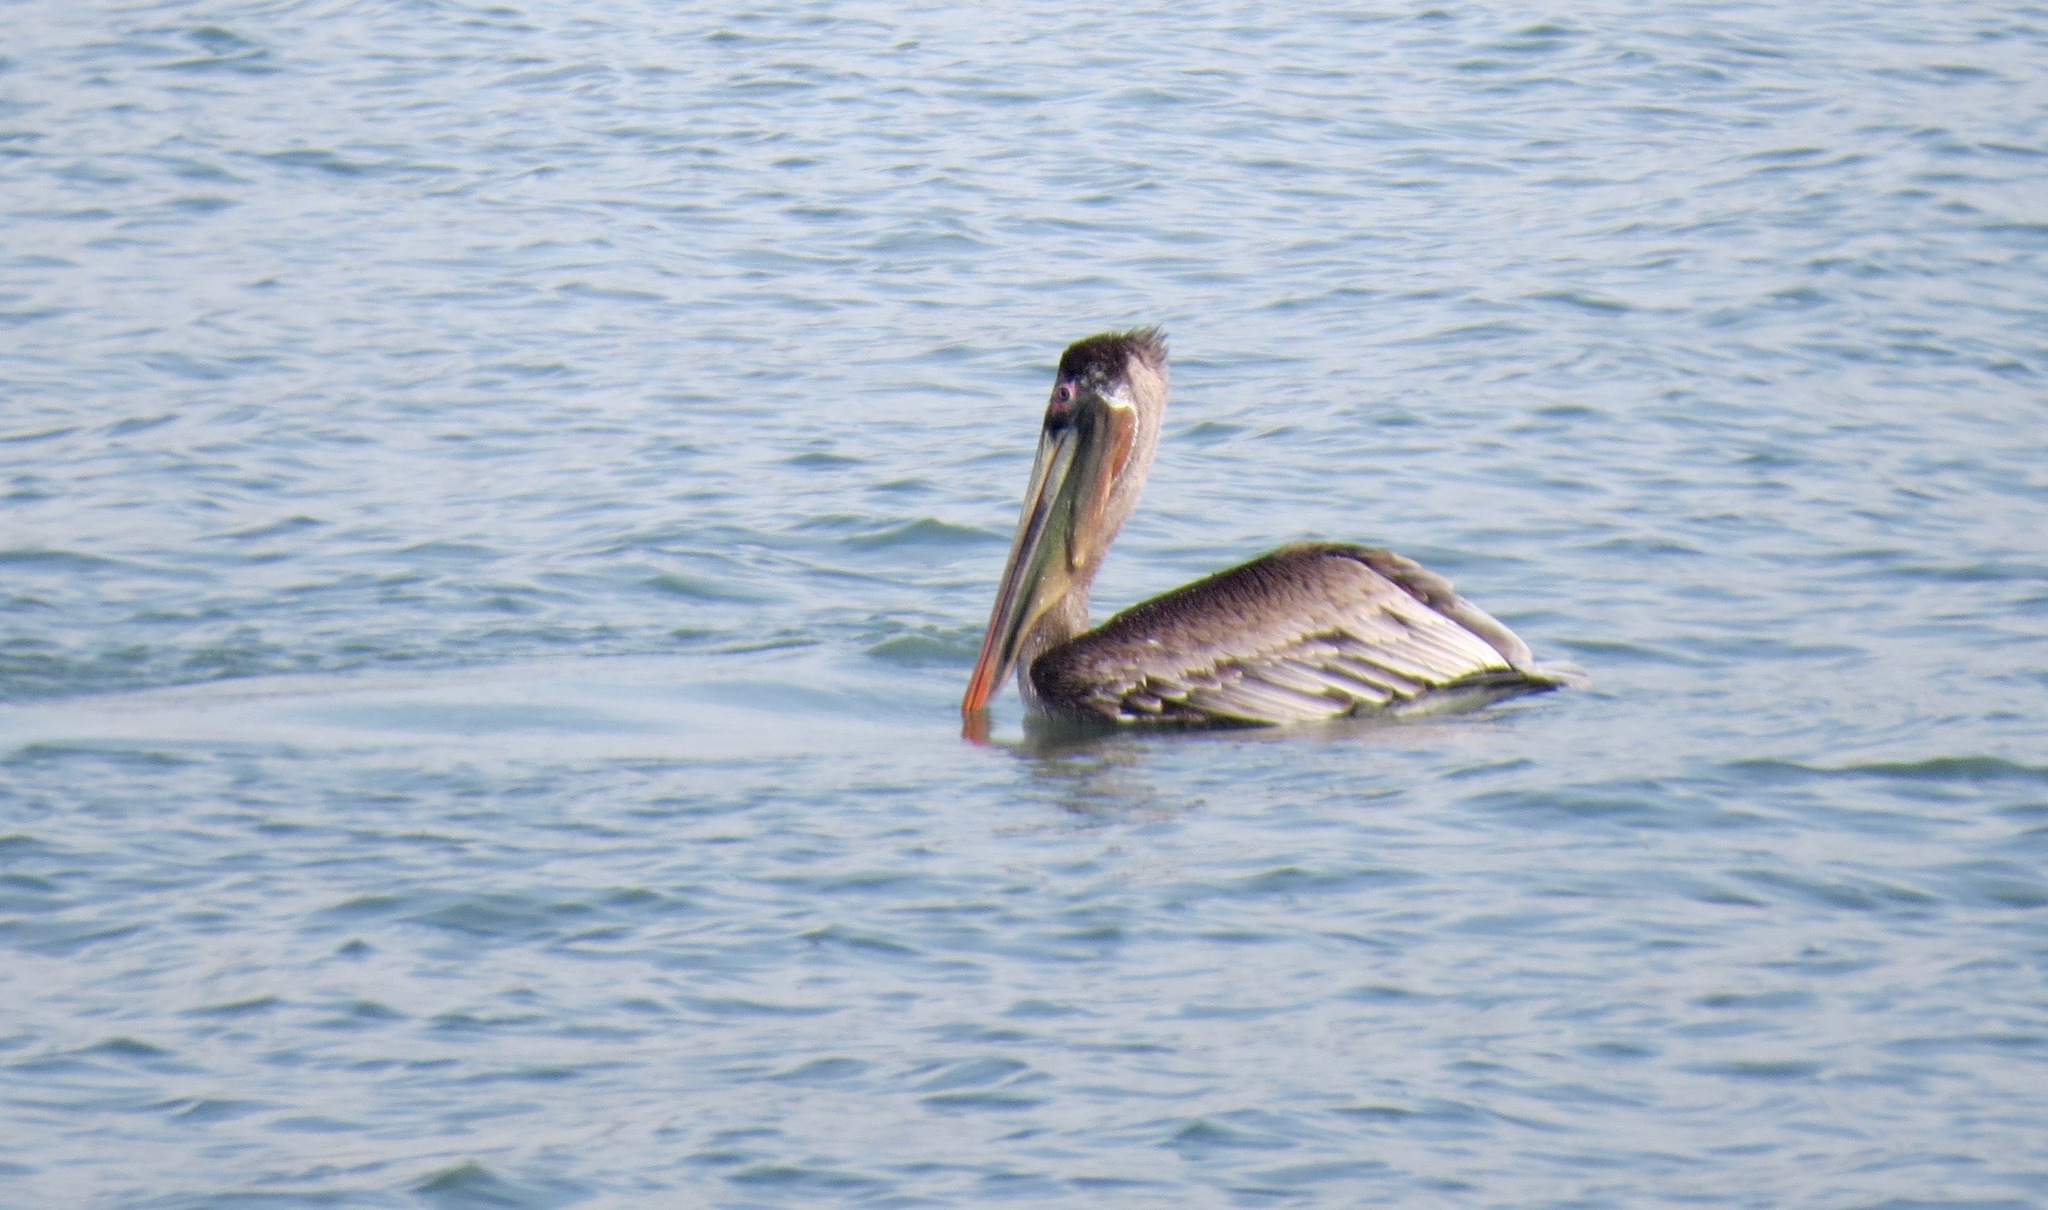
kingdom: Animalia
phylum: Chordata
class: Aves
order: Pelecaniformes
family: Pelecanidae
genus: Pelecanus
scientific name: Pelecanus occidentalis
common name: Brown pelican
